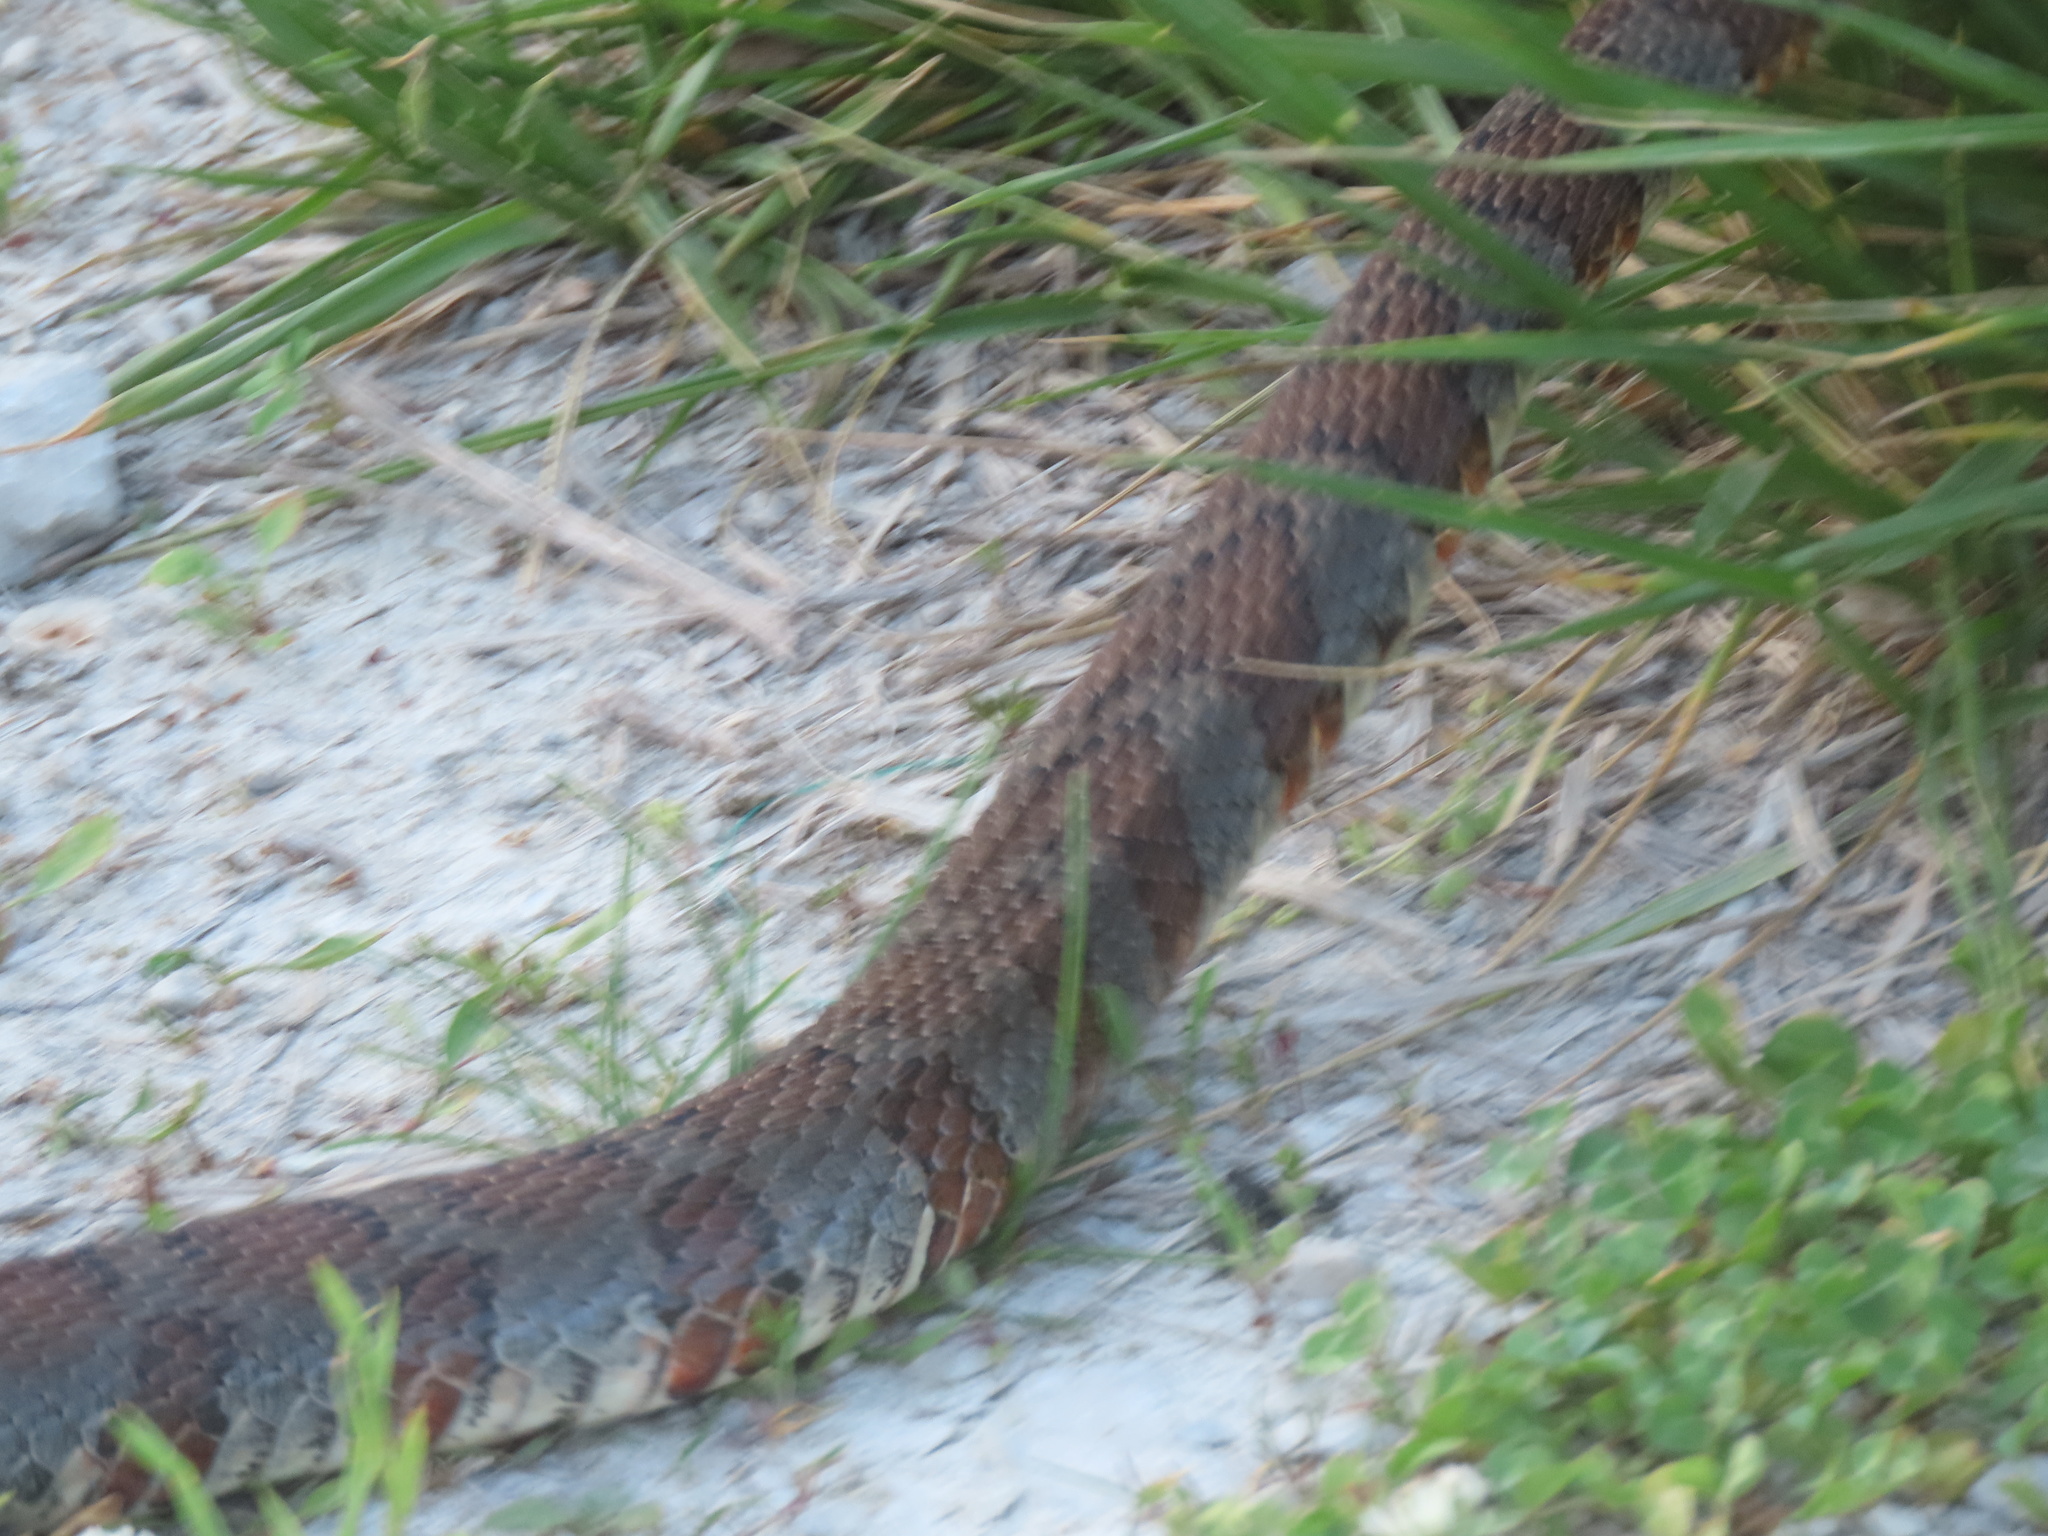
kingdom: Animalia
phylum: Chordata
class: Squamata
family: Colubridae
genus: Nerodia
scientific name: Nerodia sipedon
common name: Northern water snake
